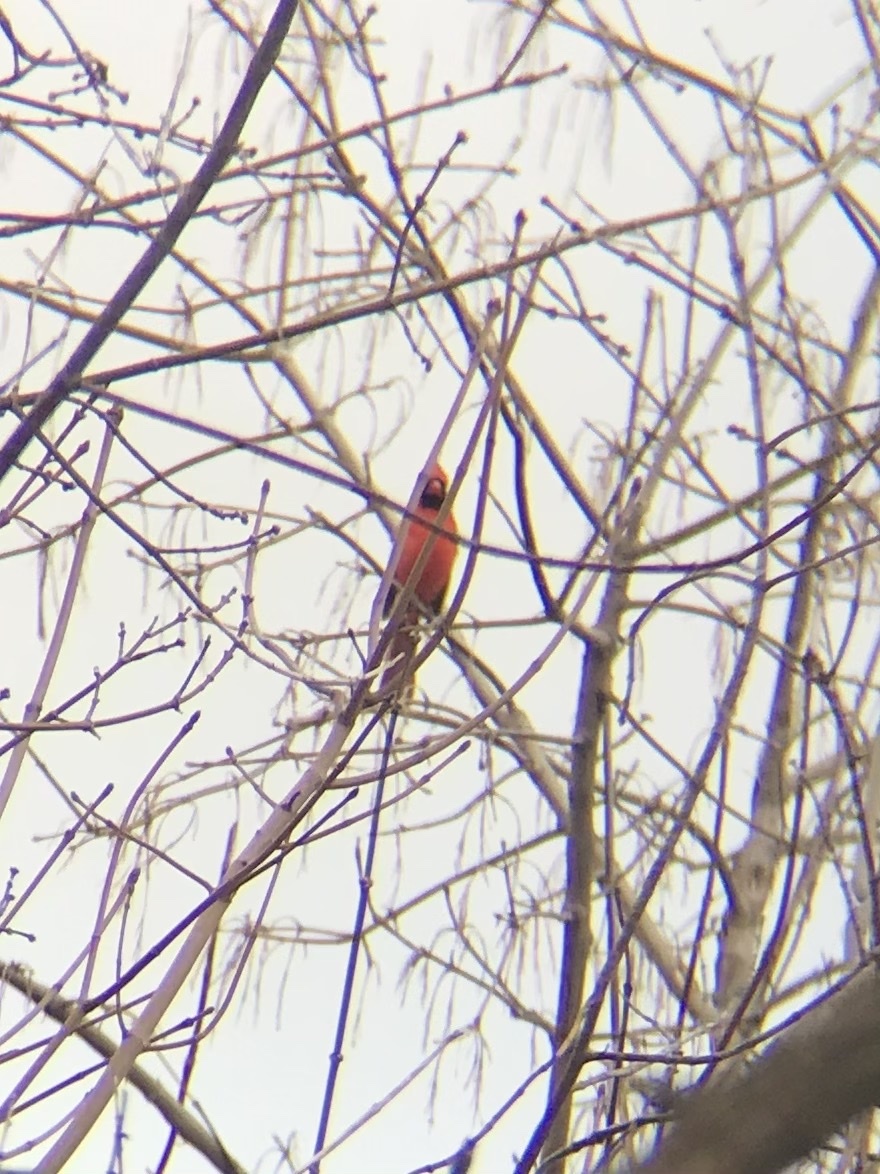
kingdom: Animalia
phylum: Chordata
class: Aves
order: Passeriformes
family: Cardinalidae
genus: Cardinalis
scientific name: Cardinalis cardinalis
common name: Northern cardinal
